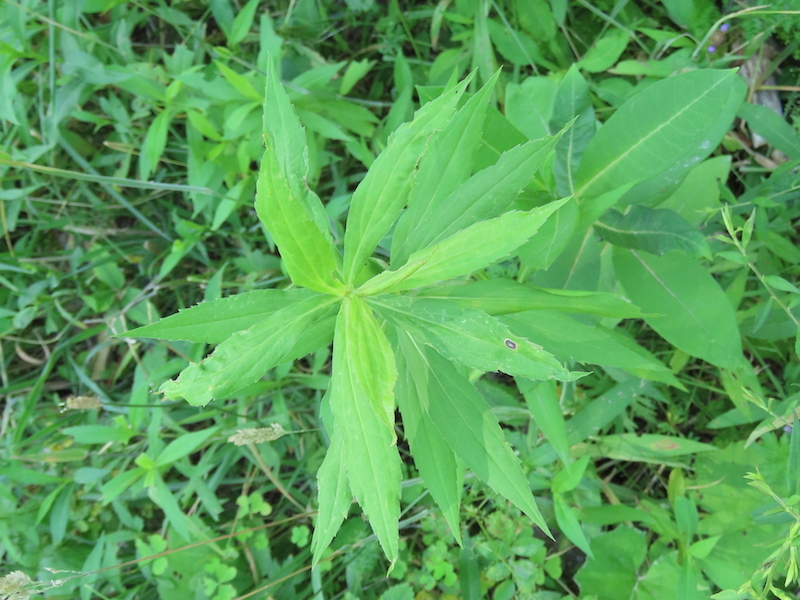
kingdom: Animalia
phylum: Arthropoda
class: Insecta
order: Diptera
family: Cecidomyiidae
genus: Asteromyia
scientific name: Asteromyia carbonifera
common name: Carbonifera goldenrod gall midge
